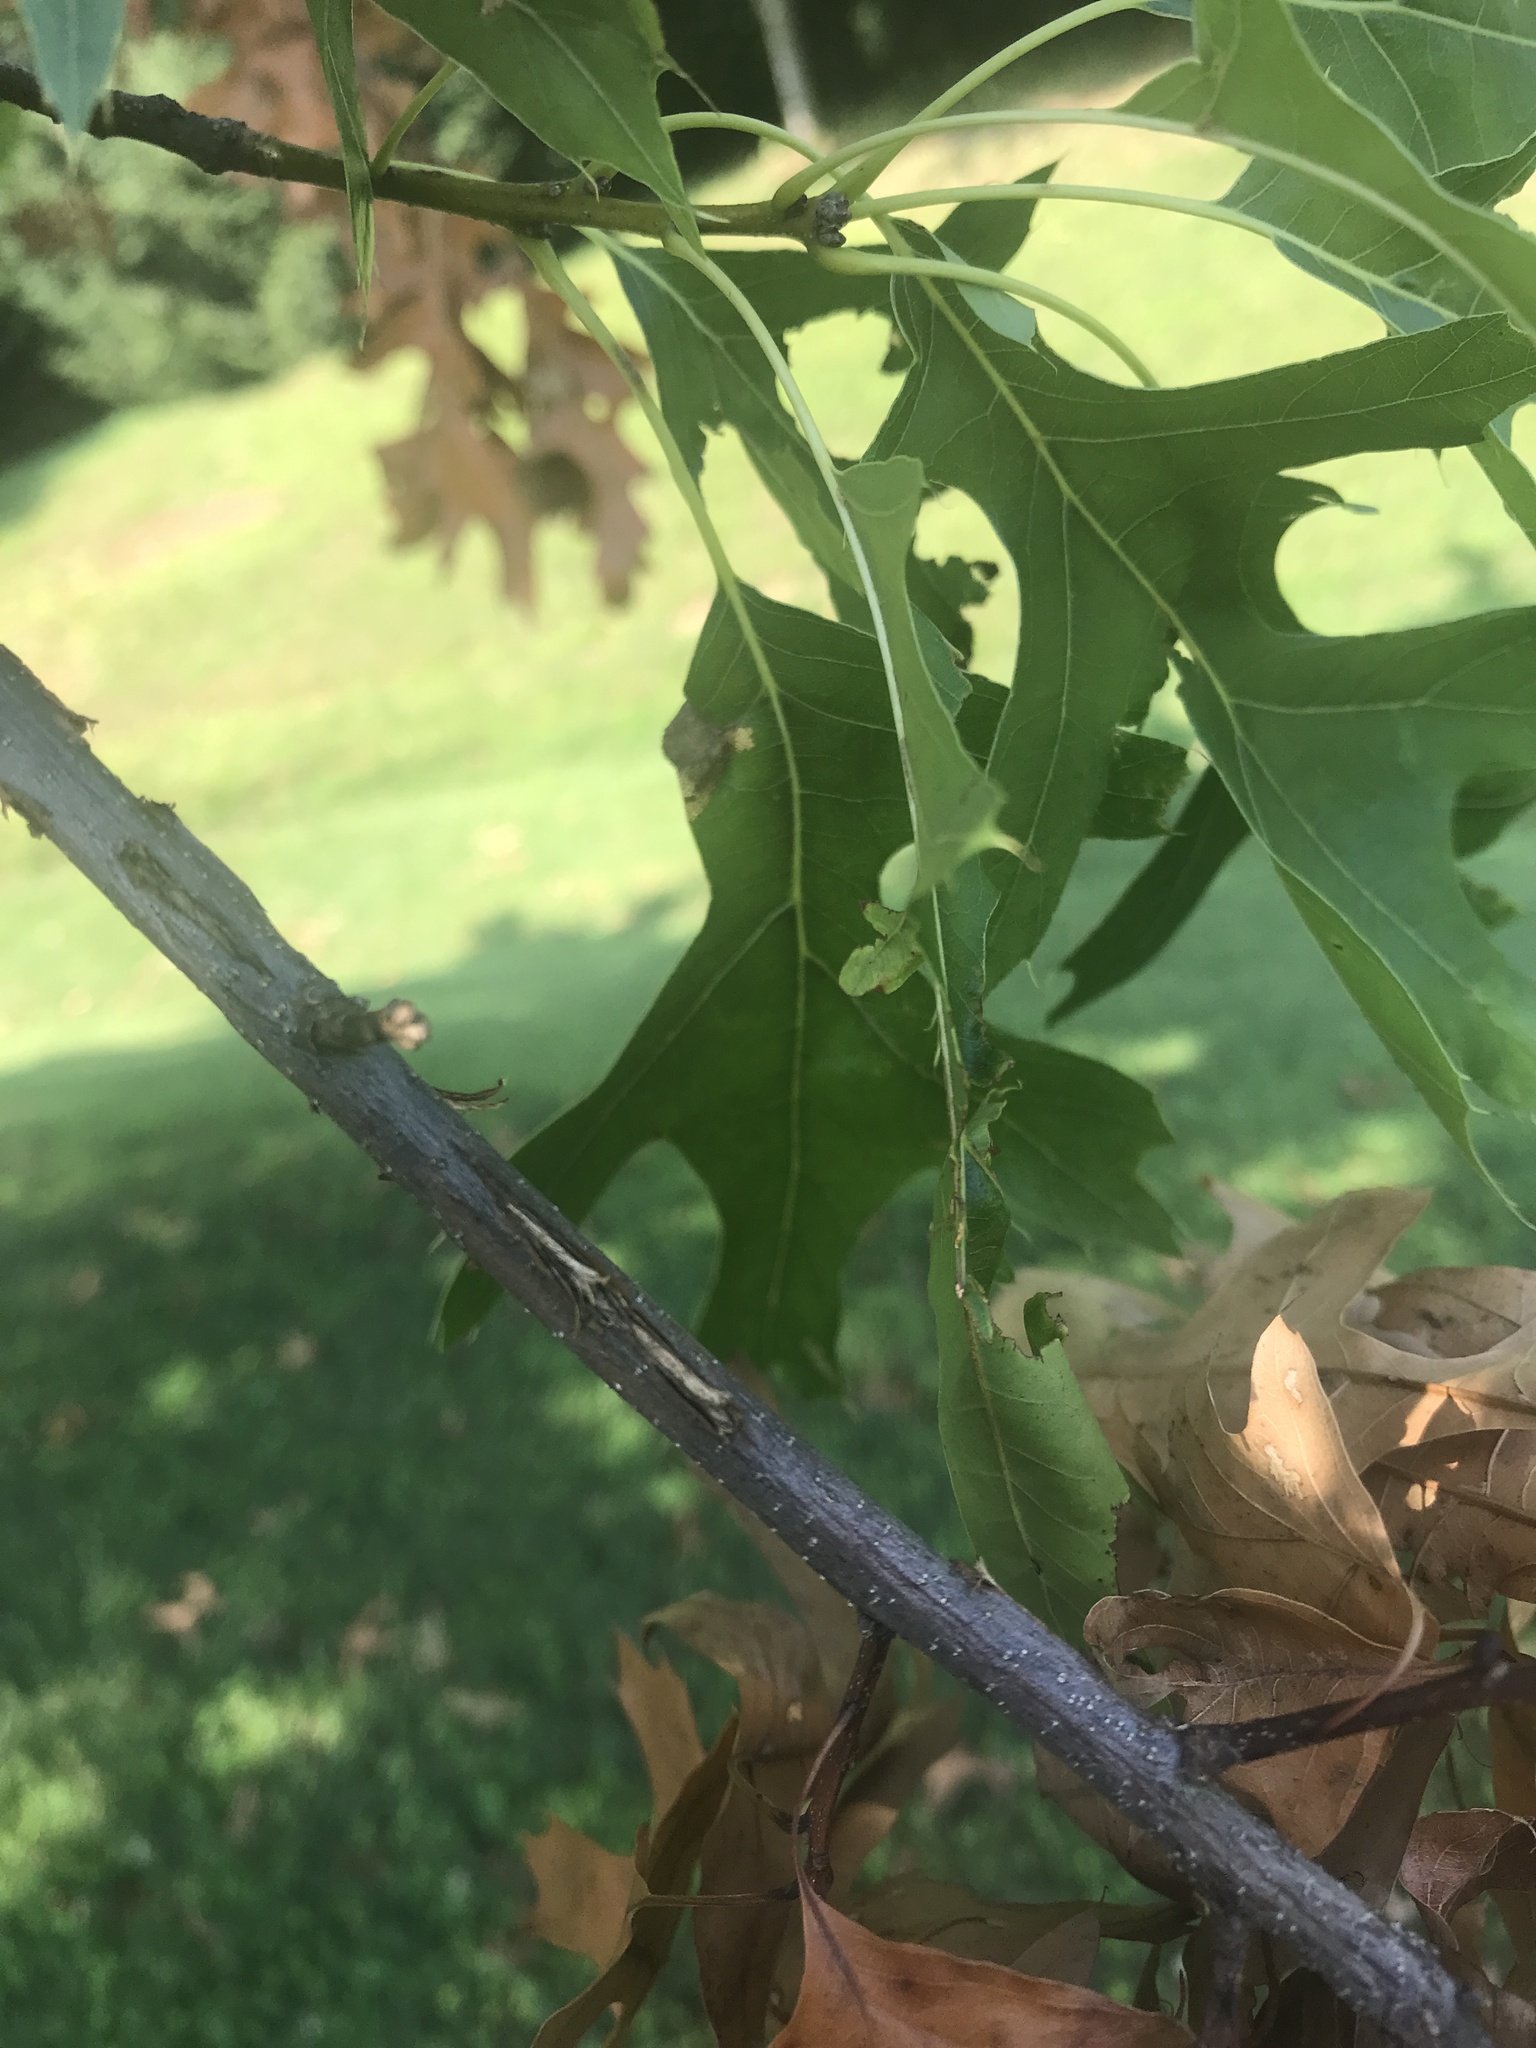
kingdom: Animalia
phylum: Arthropoda
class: Insecta
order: Hemiptera
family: Cicadidae
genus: Magicicada
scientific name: Magicicada
